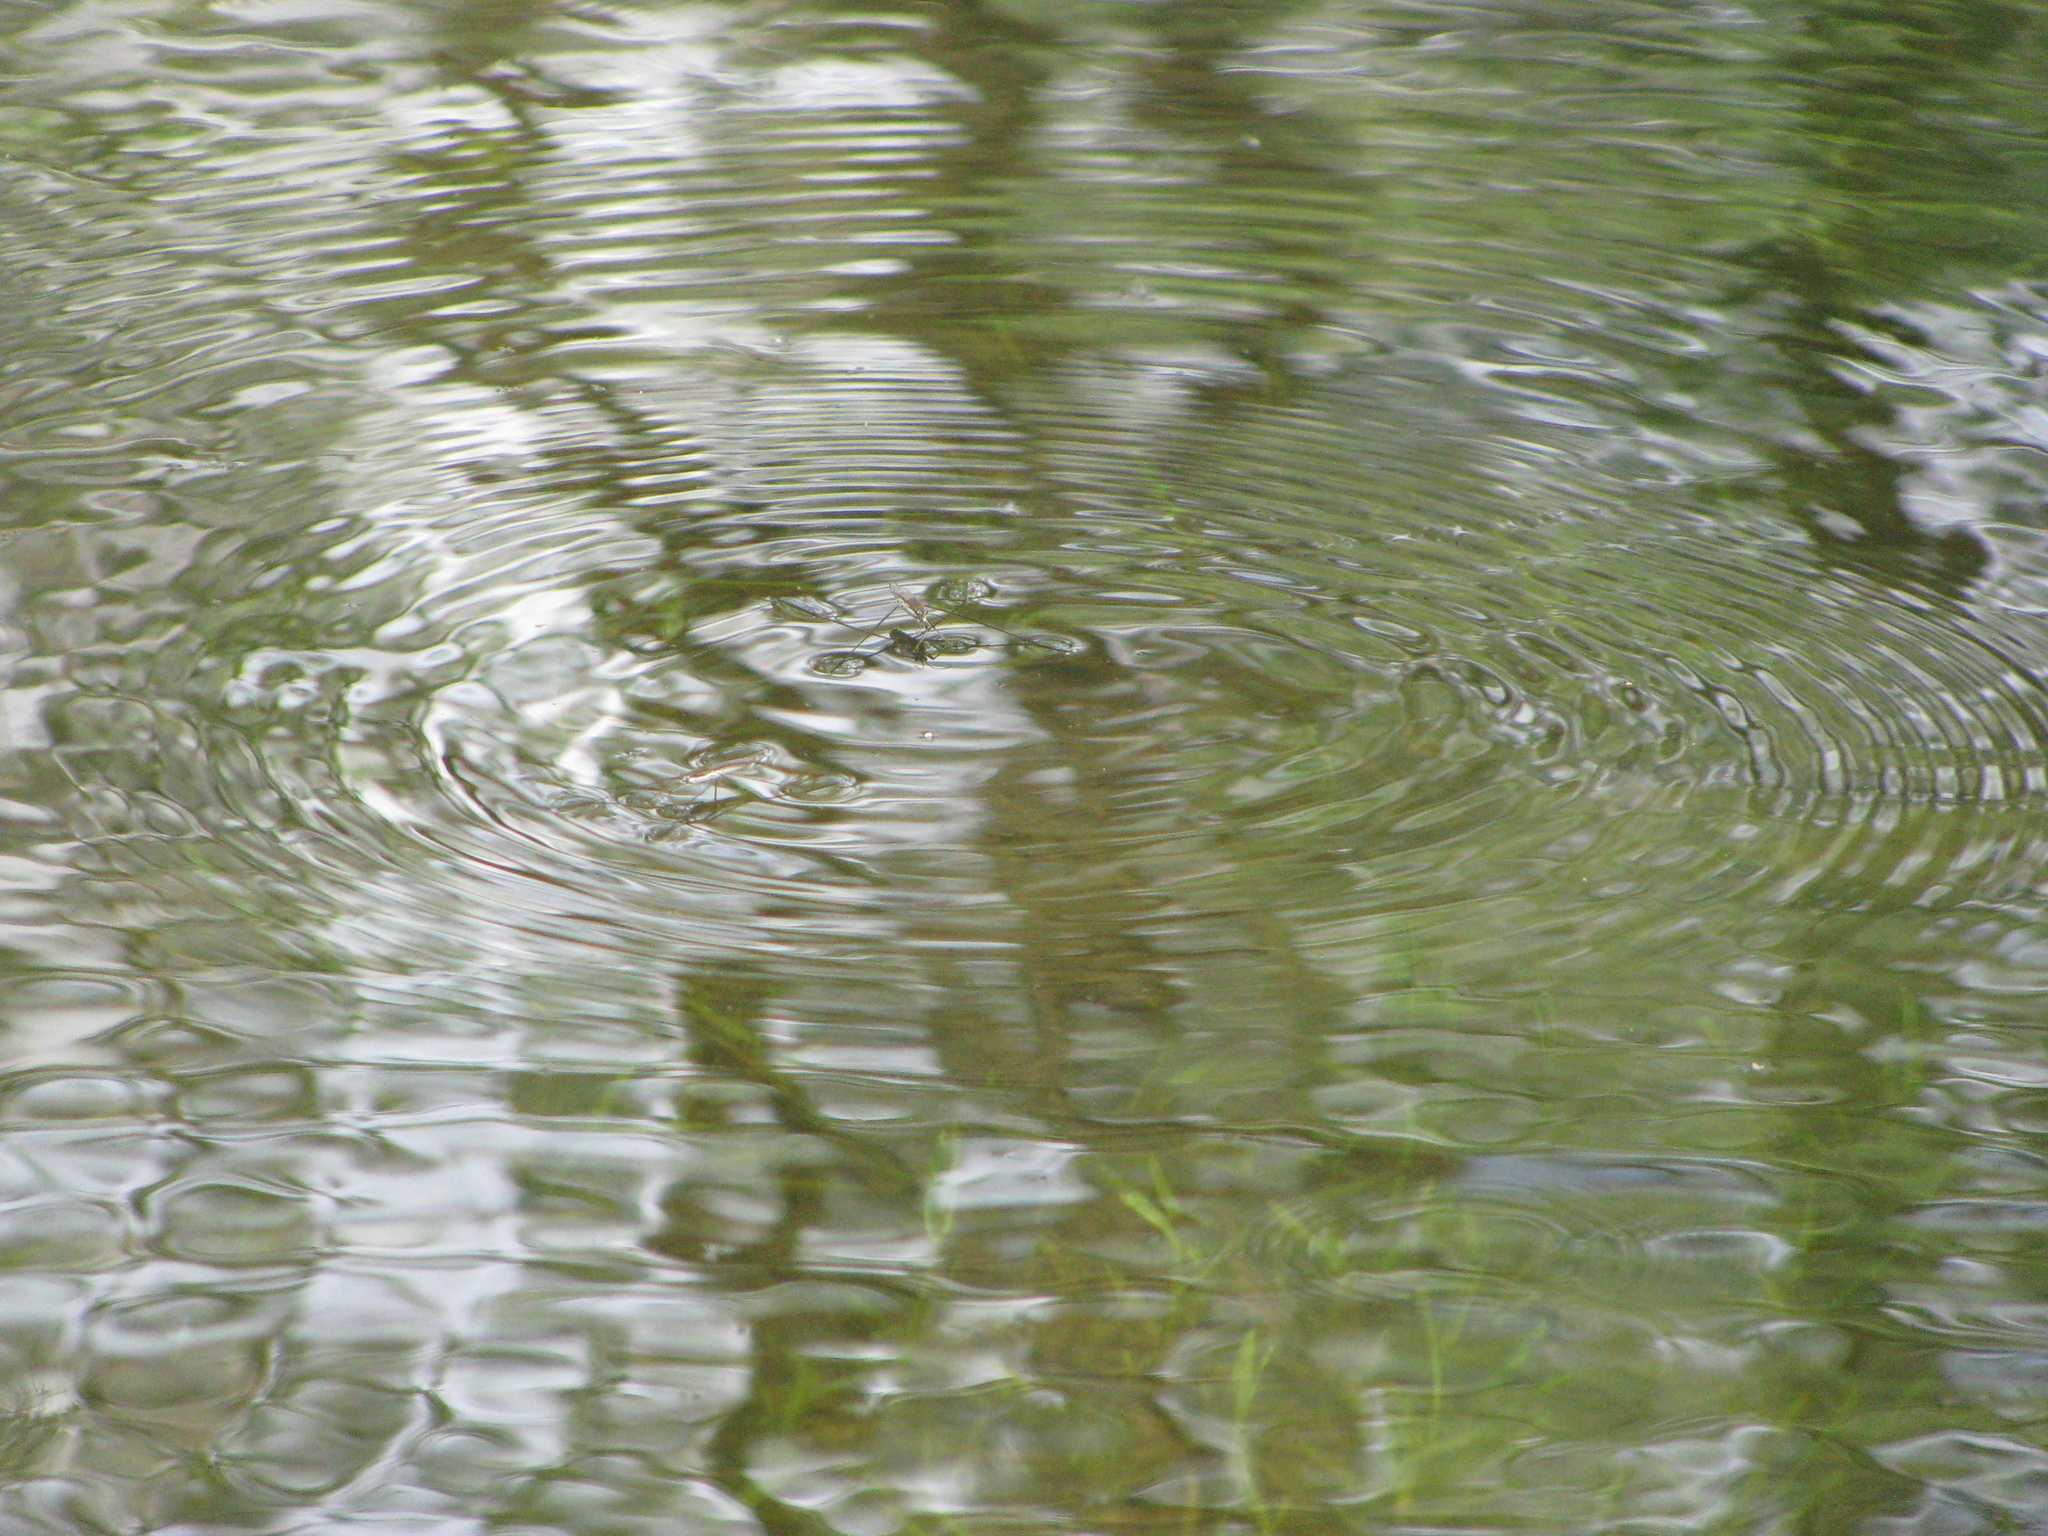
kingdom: Animalia
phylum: Arthropoda
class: Insecta
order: Hemiptera
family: Gerridae
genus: Aquarius
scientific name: Aquarius paludum
